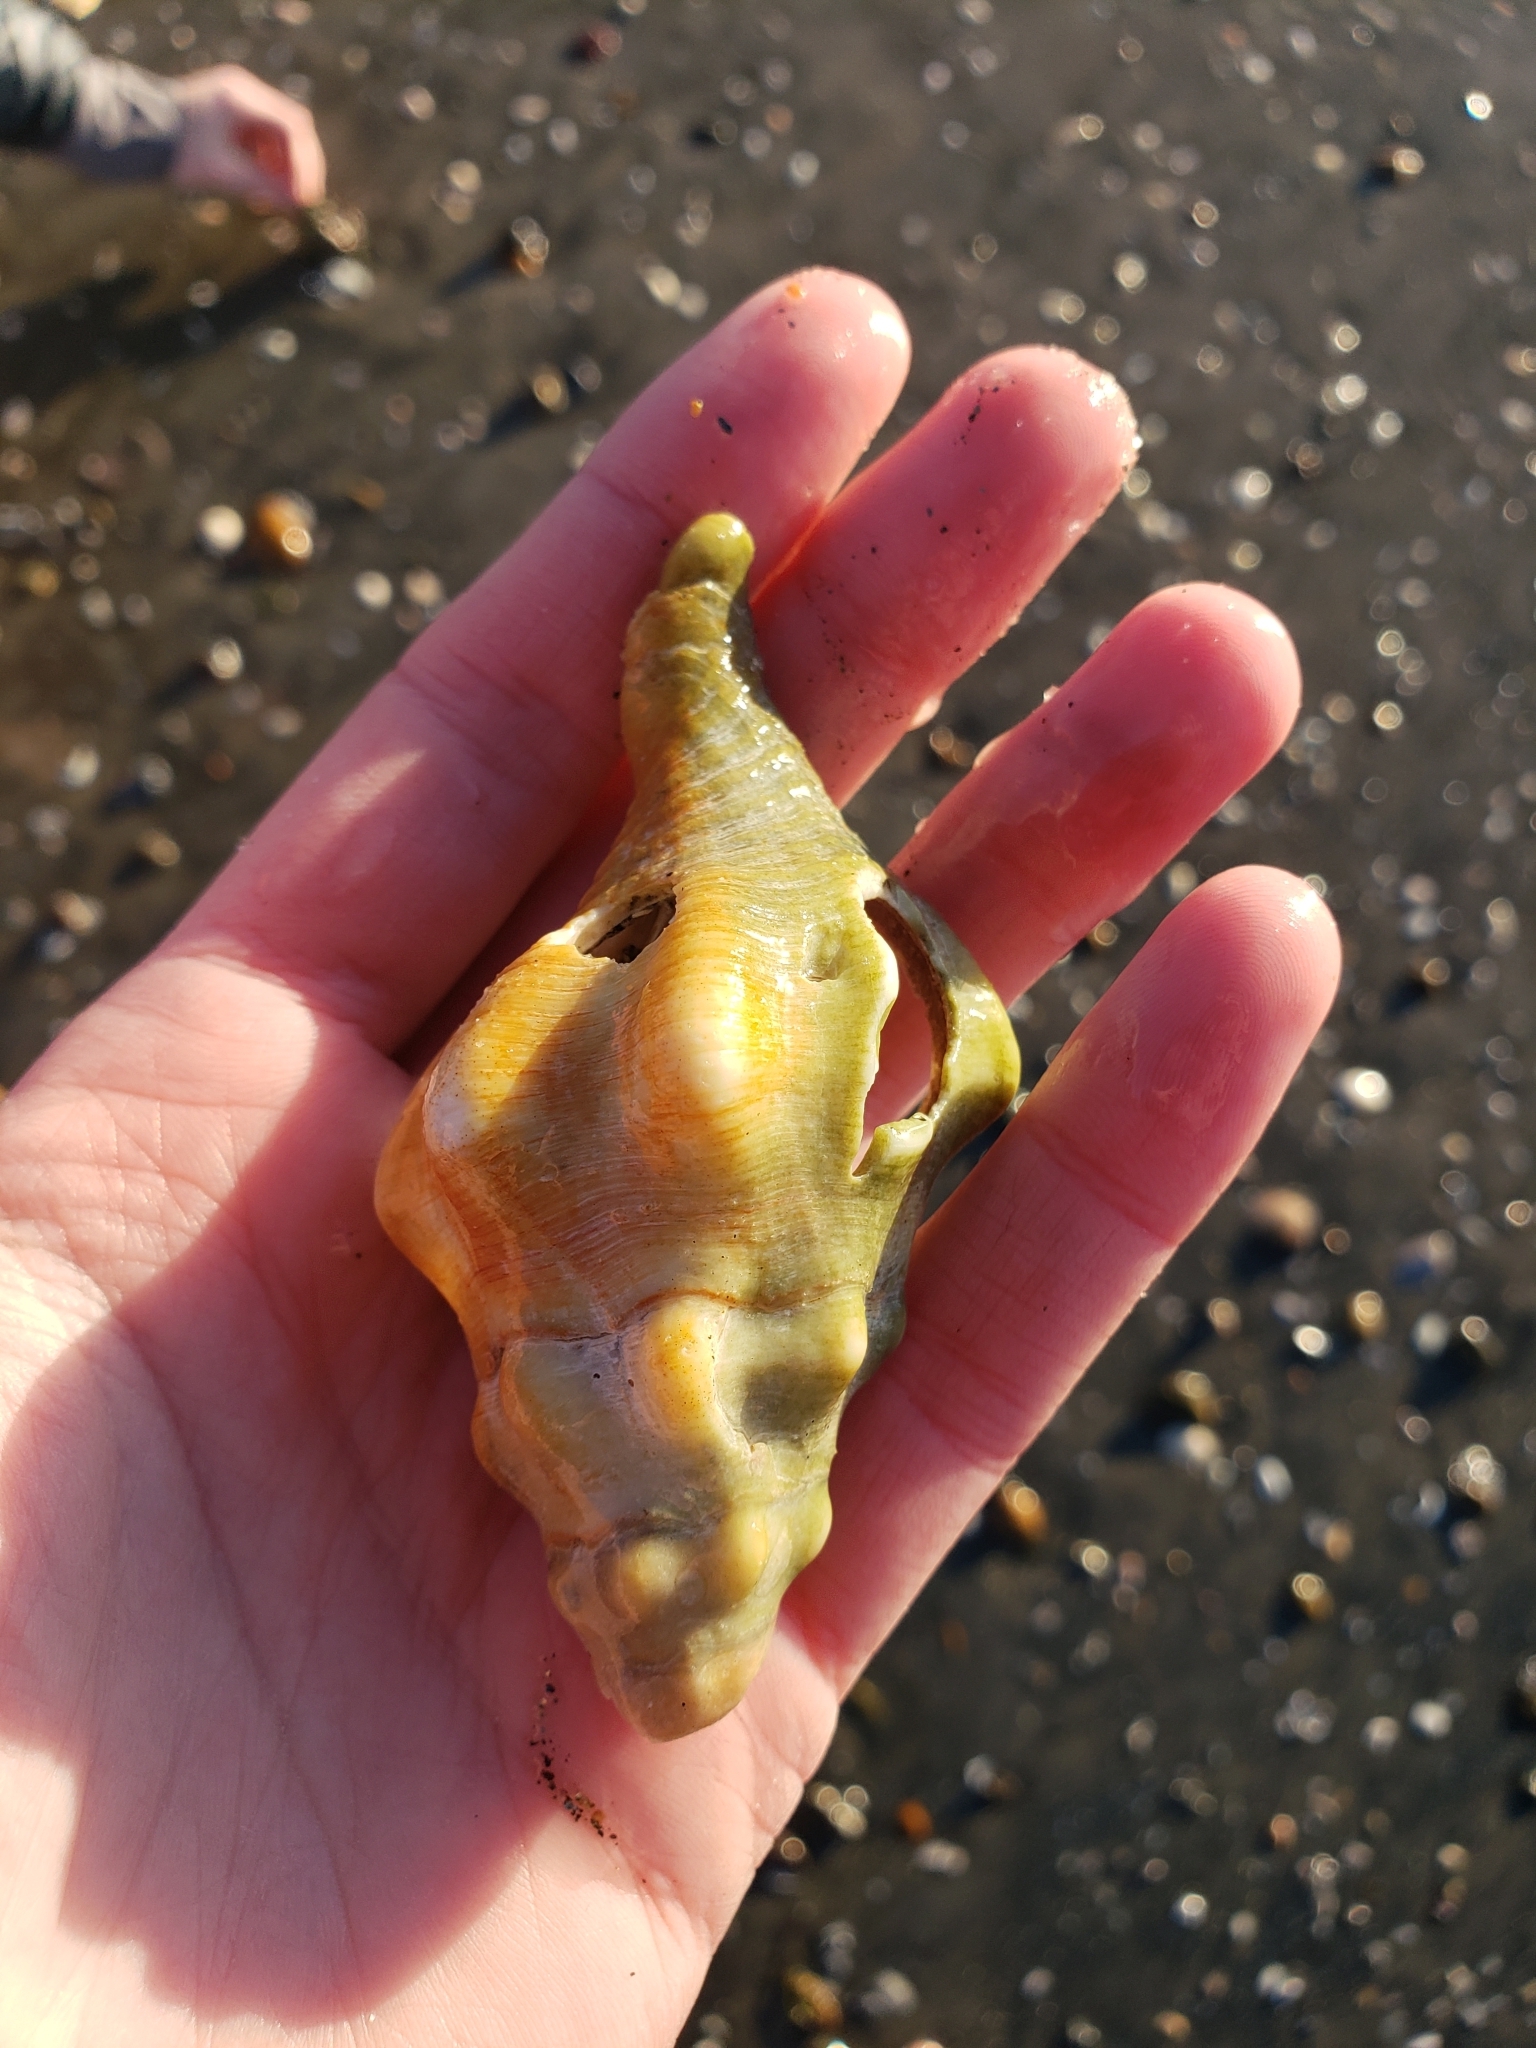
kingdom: Animalia
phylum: Mollusca
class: Gastropoda
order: Neogastropoda
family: Austrosiphonidae
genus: Kelletia
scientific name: Kelletia kelletii
